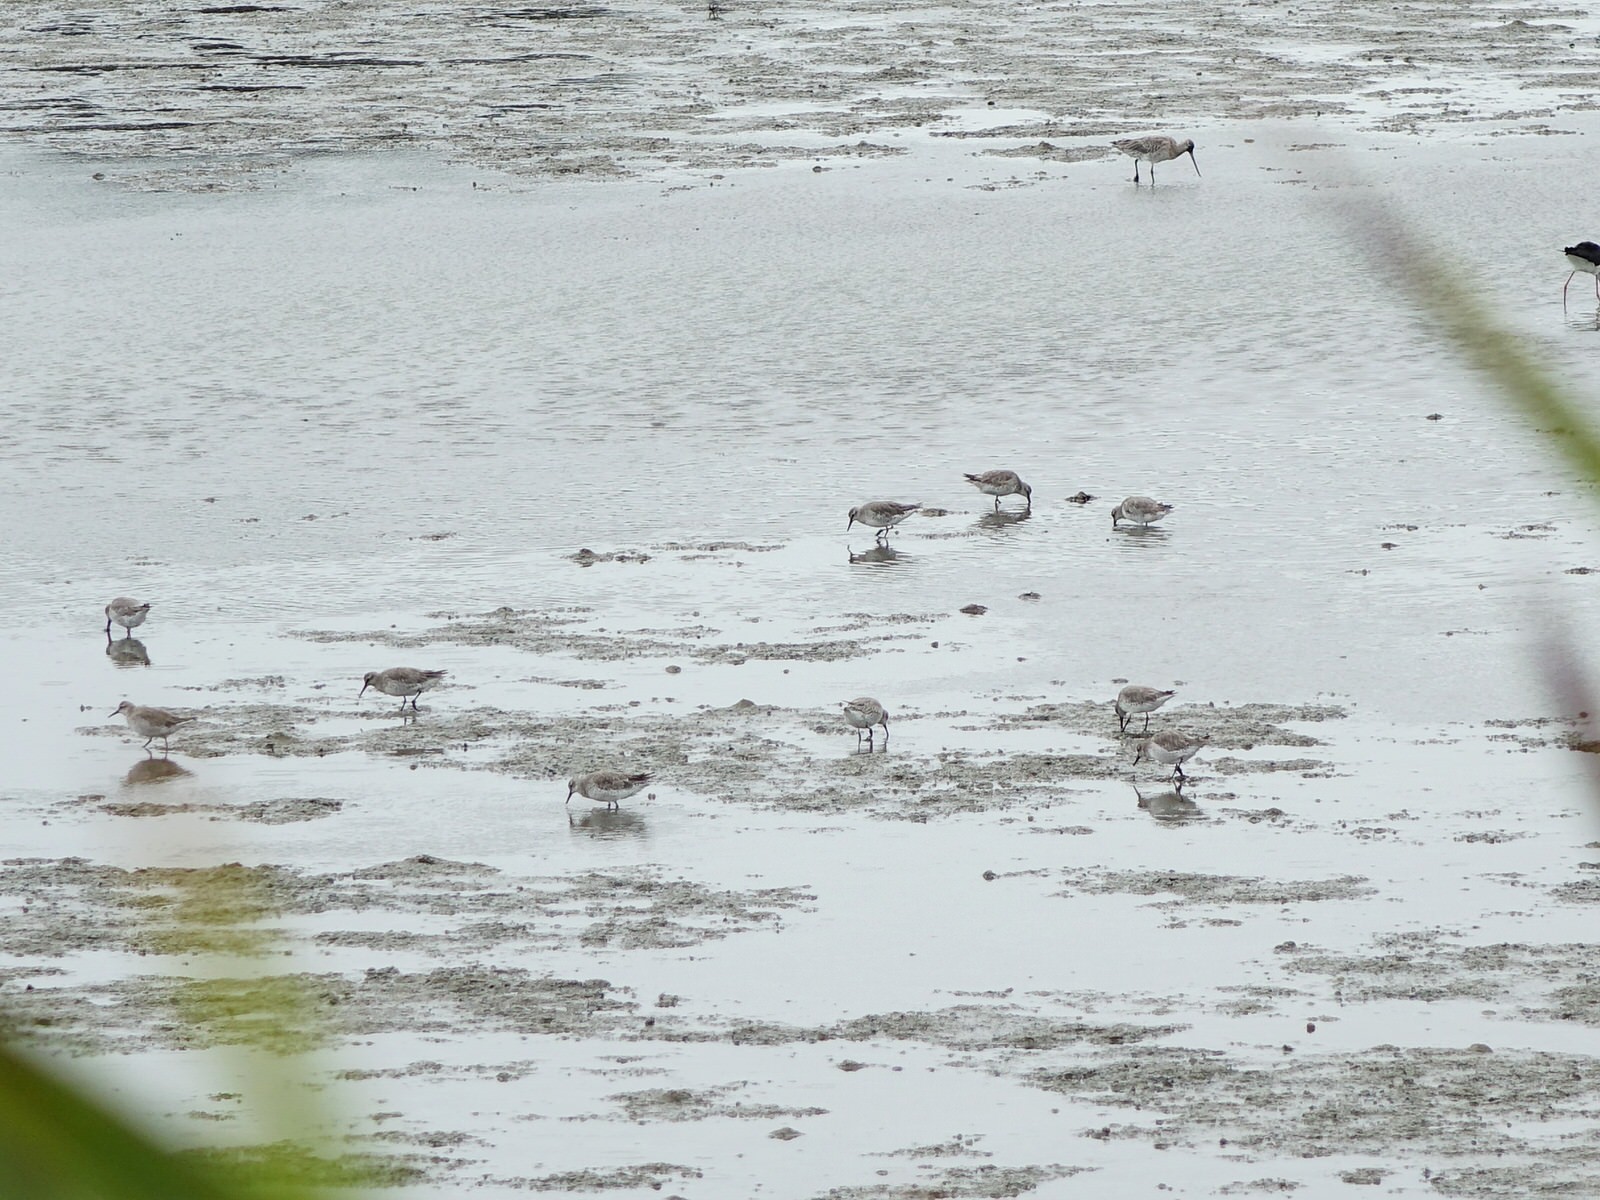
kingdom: Animalia
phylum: Chordata
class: Aves
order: Charadriiformes
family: Scolopacidae
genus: Calidris
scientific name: Calidris canutus
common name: Red knot
